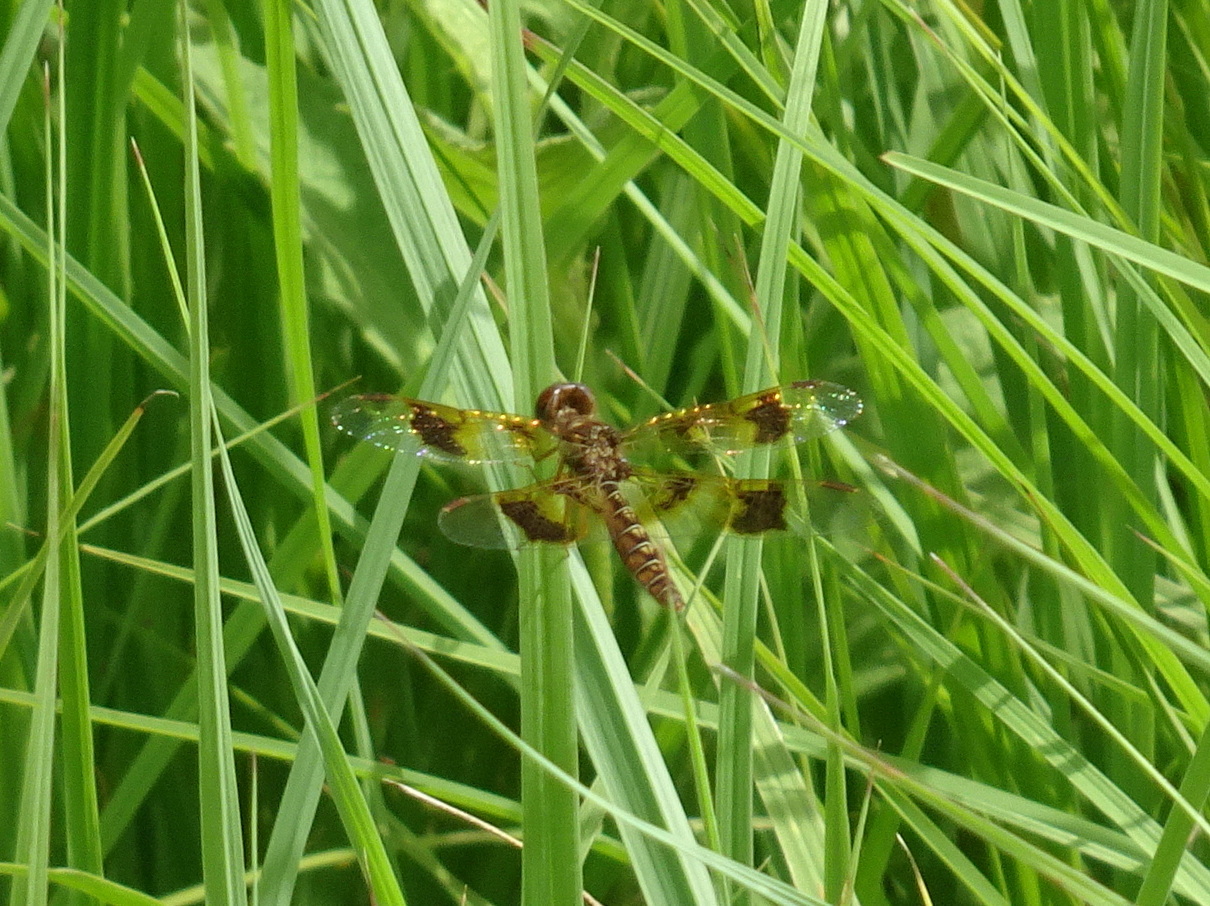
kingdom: Animalia
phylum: Arthropoda
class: Insecta
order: Odonata
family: Libellulidae
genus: Perithemis
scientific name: Perithemis tenera
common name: Eastern amberwing
